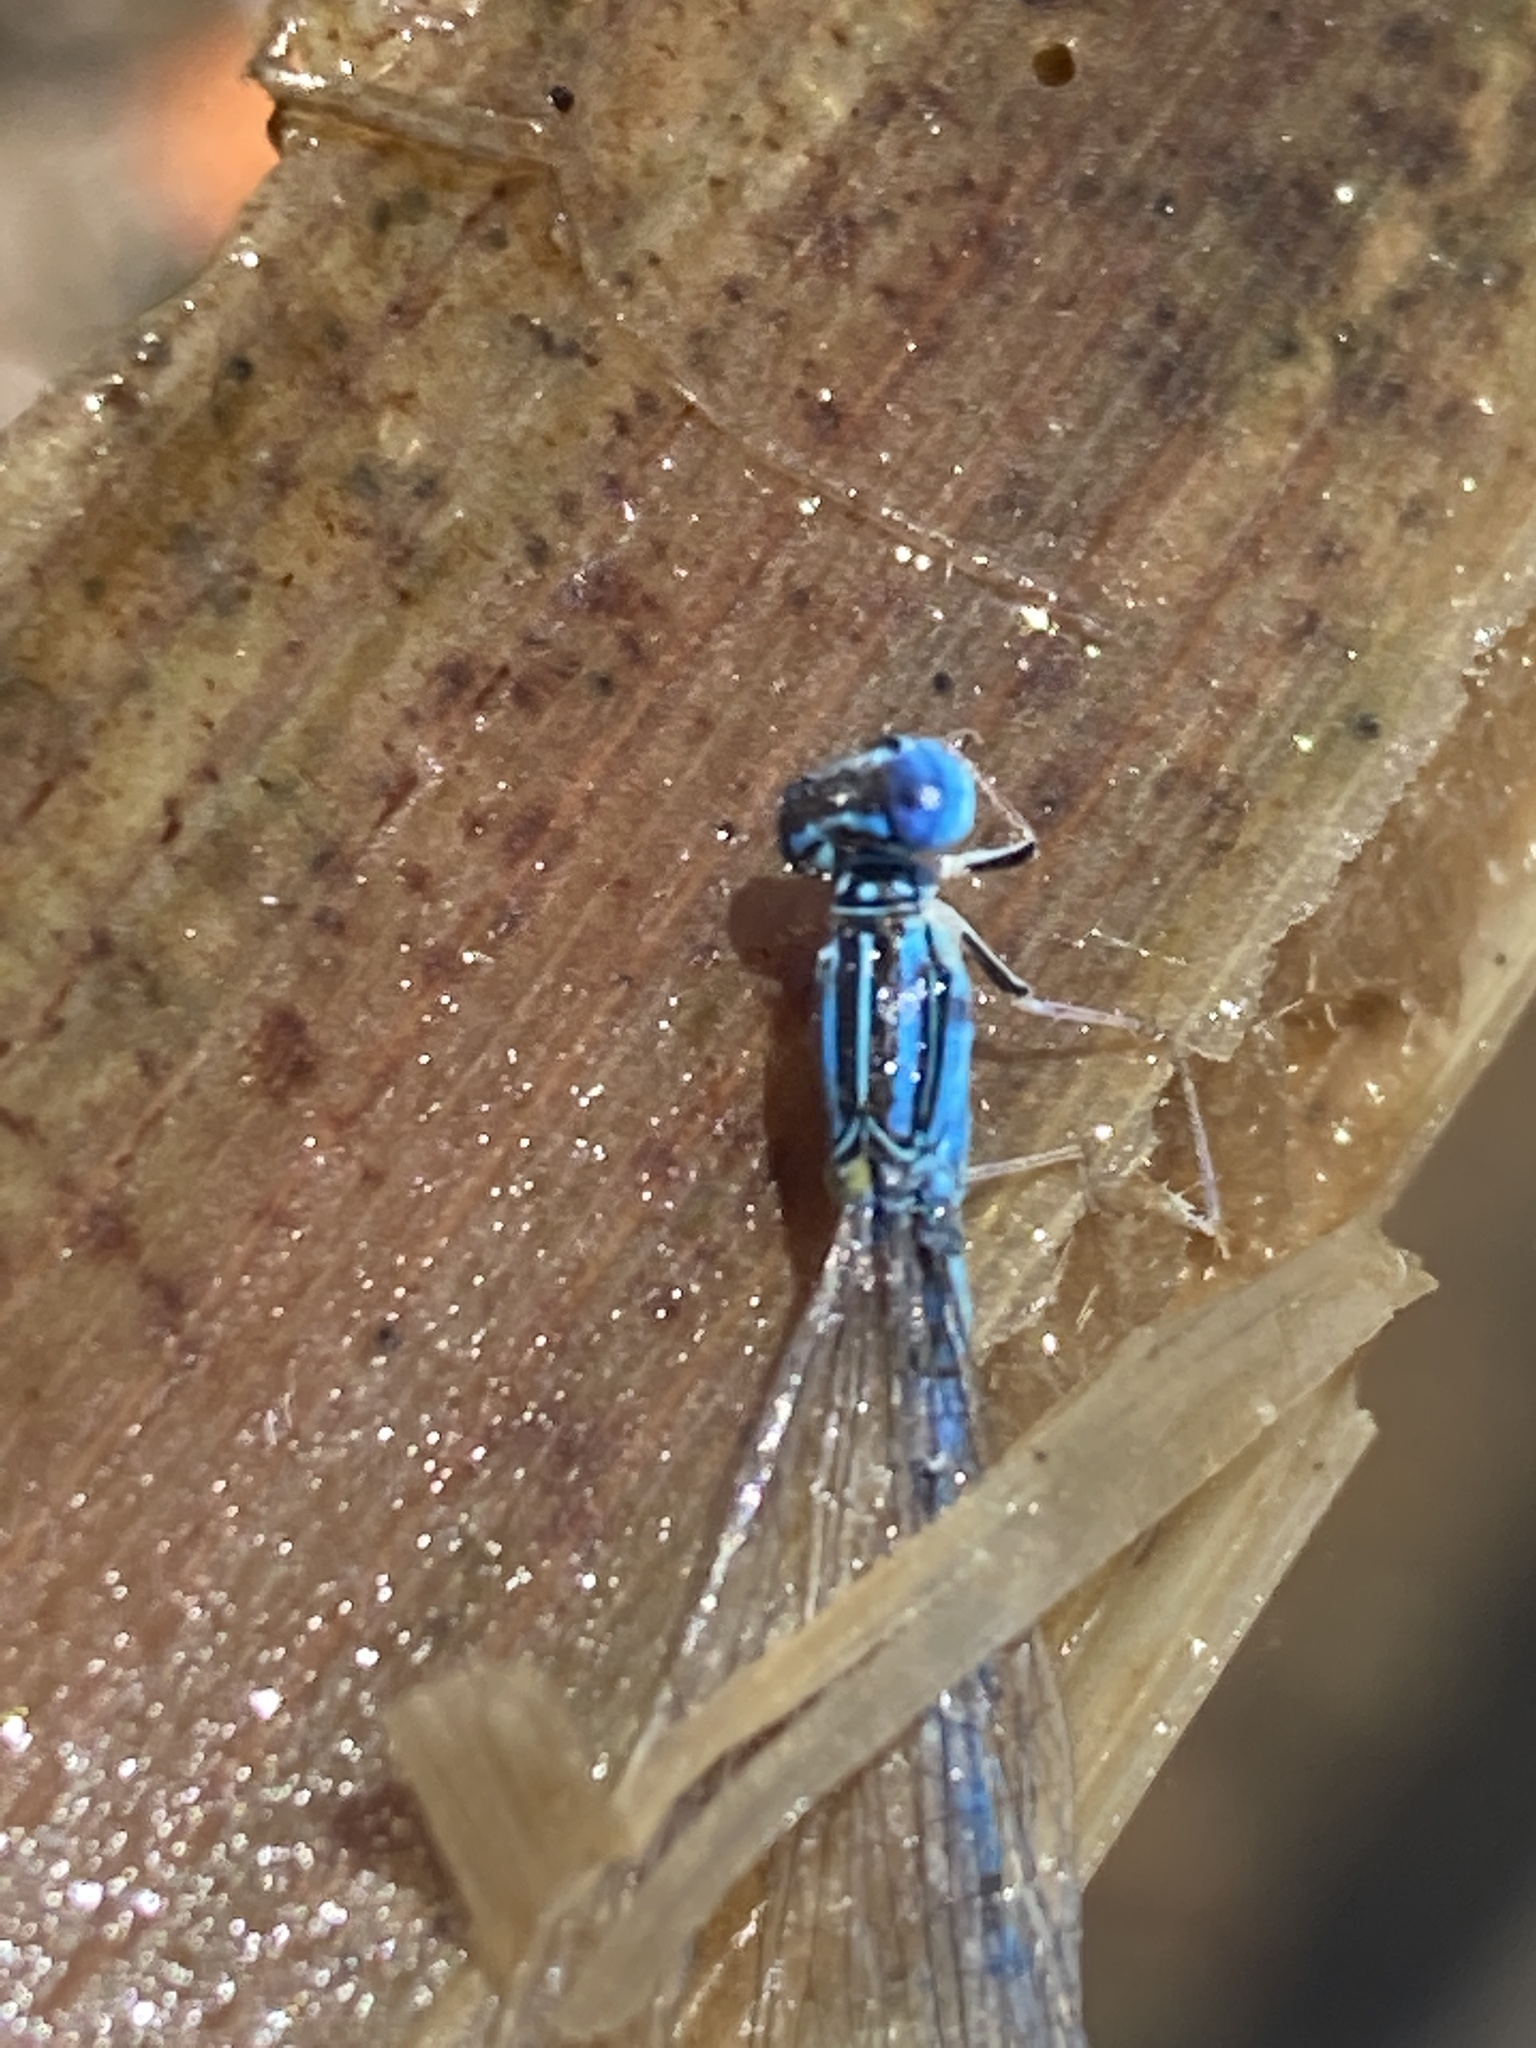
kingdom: Animalia
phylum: Arthropoda
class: Insecta
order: Odonata
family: Coenagrionidae
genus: Enallagma
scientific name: Enallagma basidens
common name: Double-striped bluet
